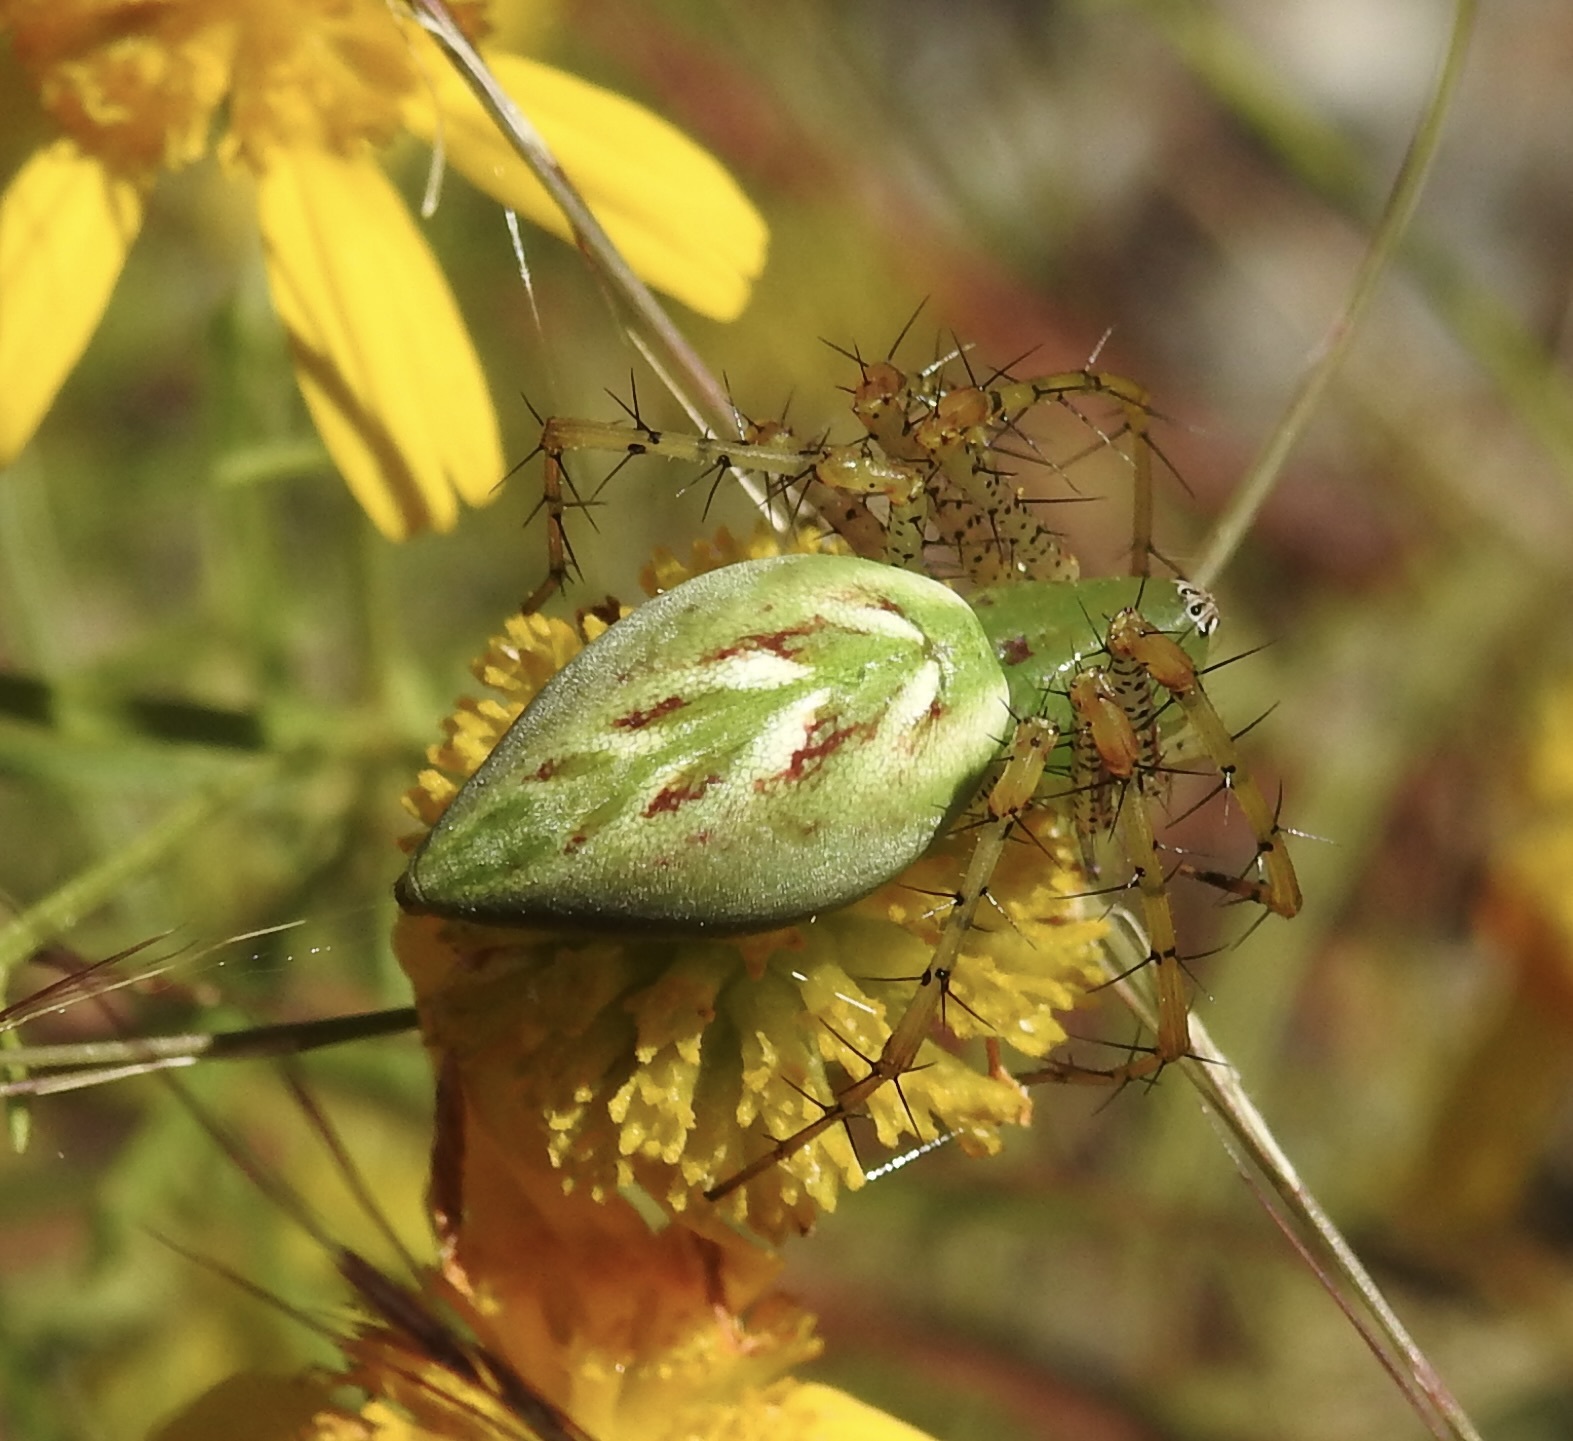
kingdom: Animalia
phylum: Arthropoda
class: Arachnida
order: Araneae
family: Oxyopidae
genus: Peucetia
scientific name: Peucetia viridans
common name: Lynx spiders
